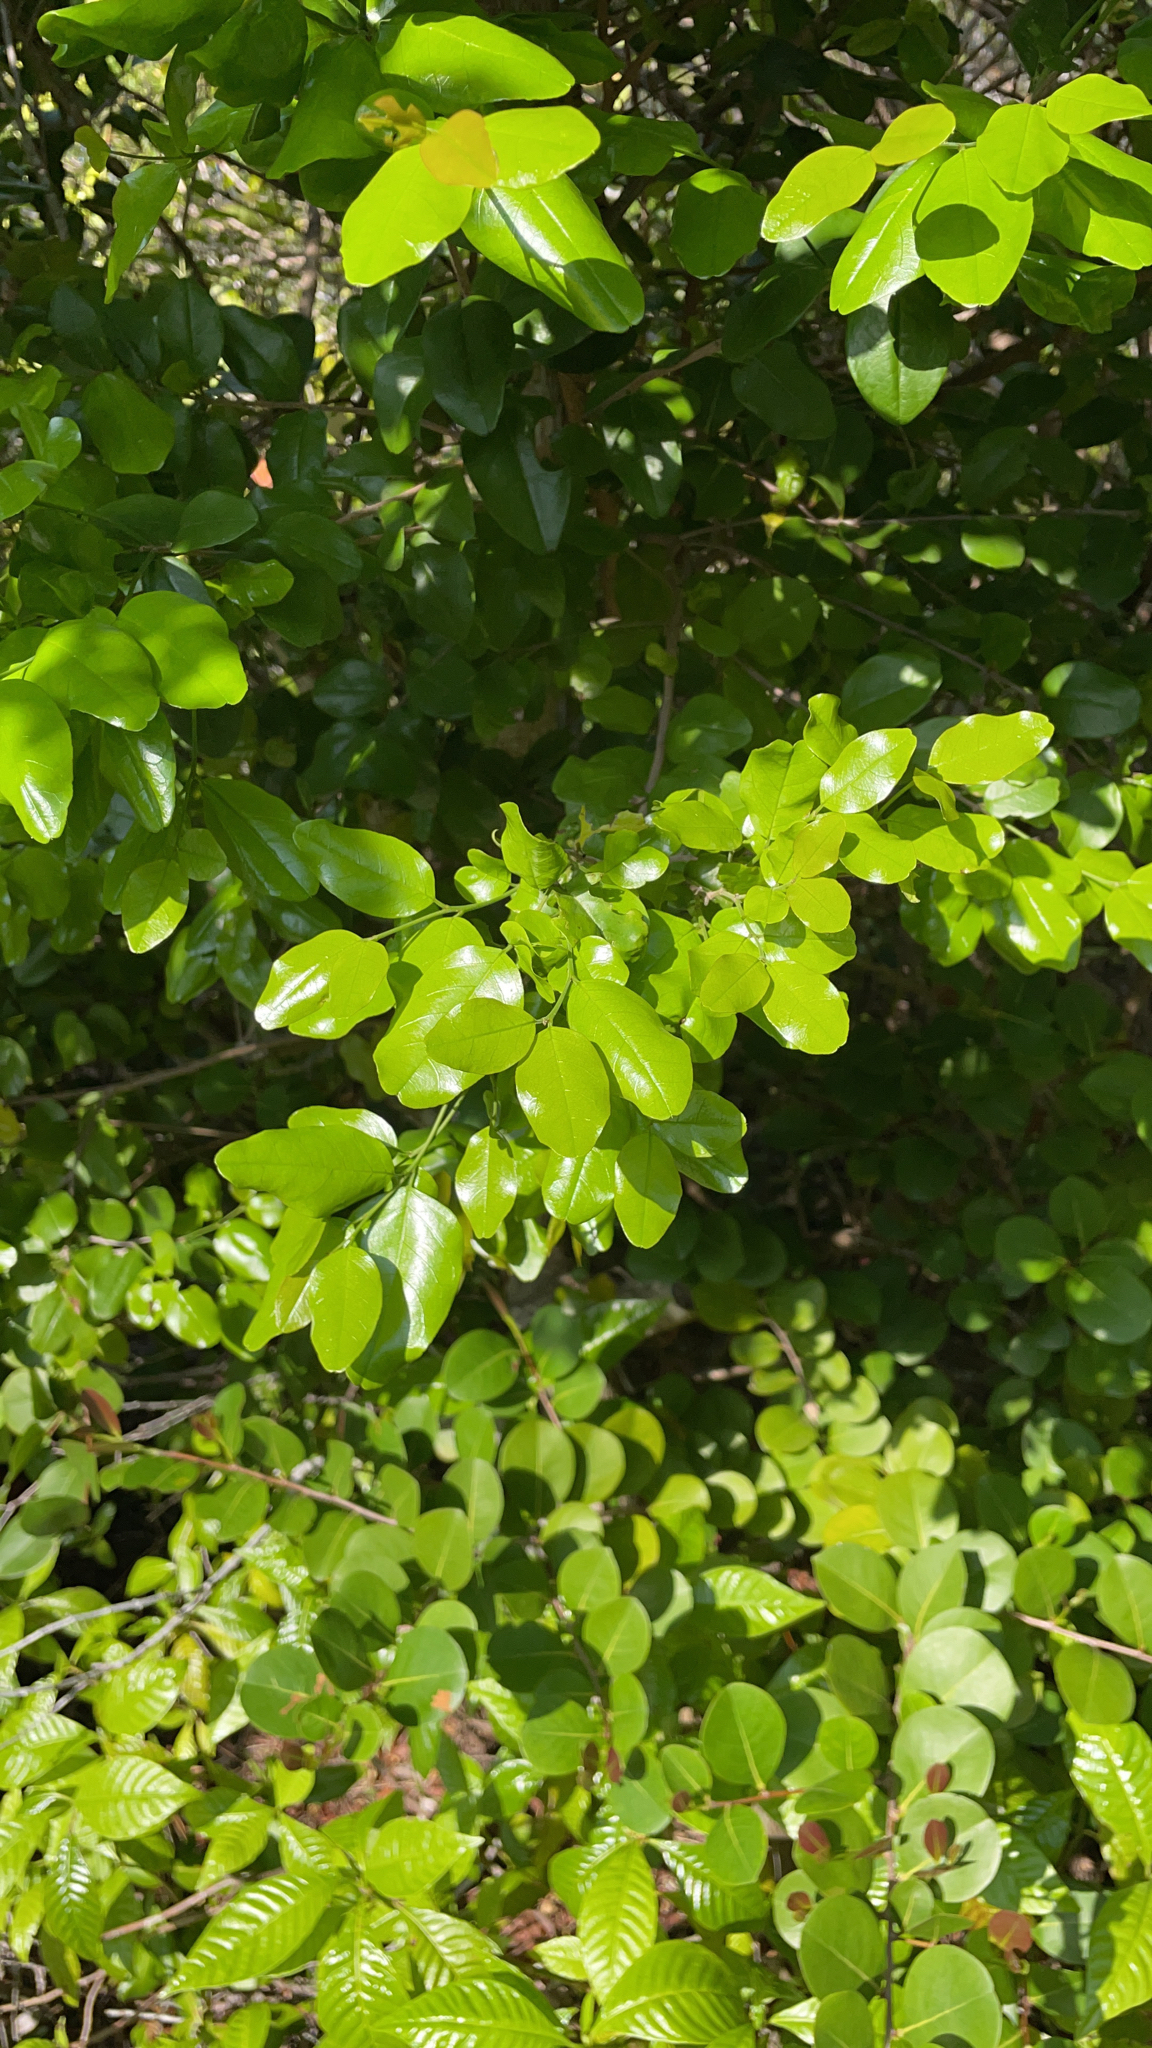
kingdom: Plantae
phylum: Tracheophyta
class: Magnoliopsida
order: Rosales
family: Rhamnaceae
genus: Krugiodendron
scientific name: Krugiodendron ferreum
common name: Iron wood
